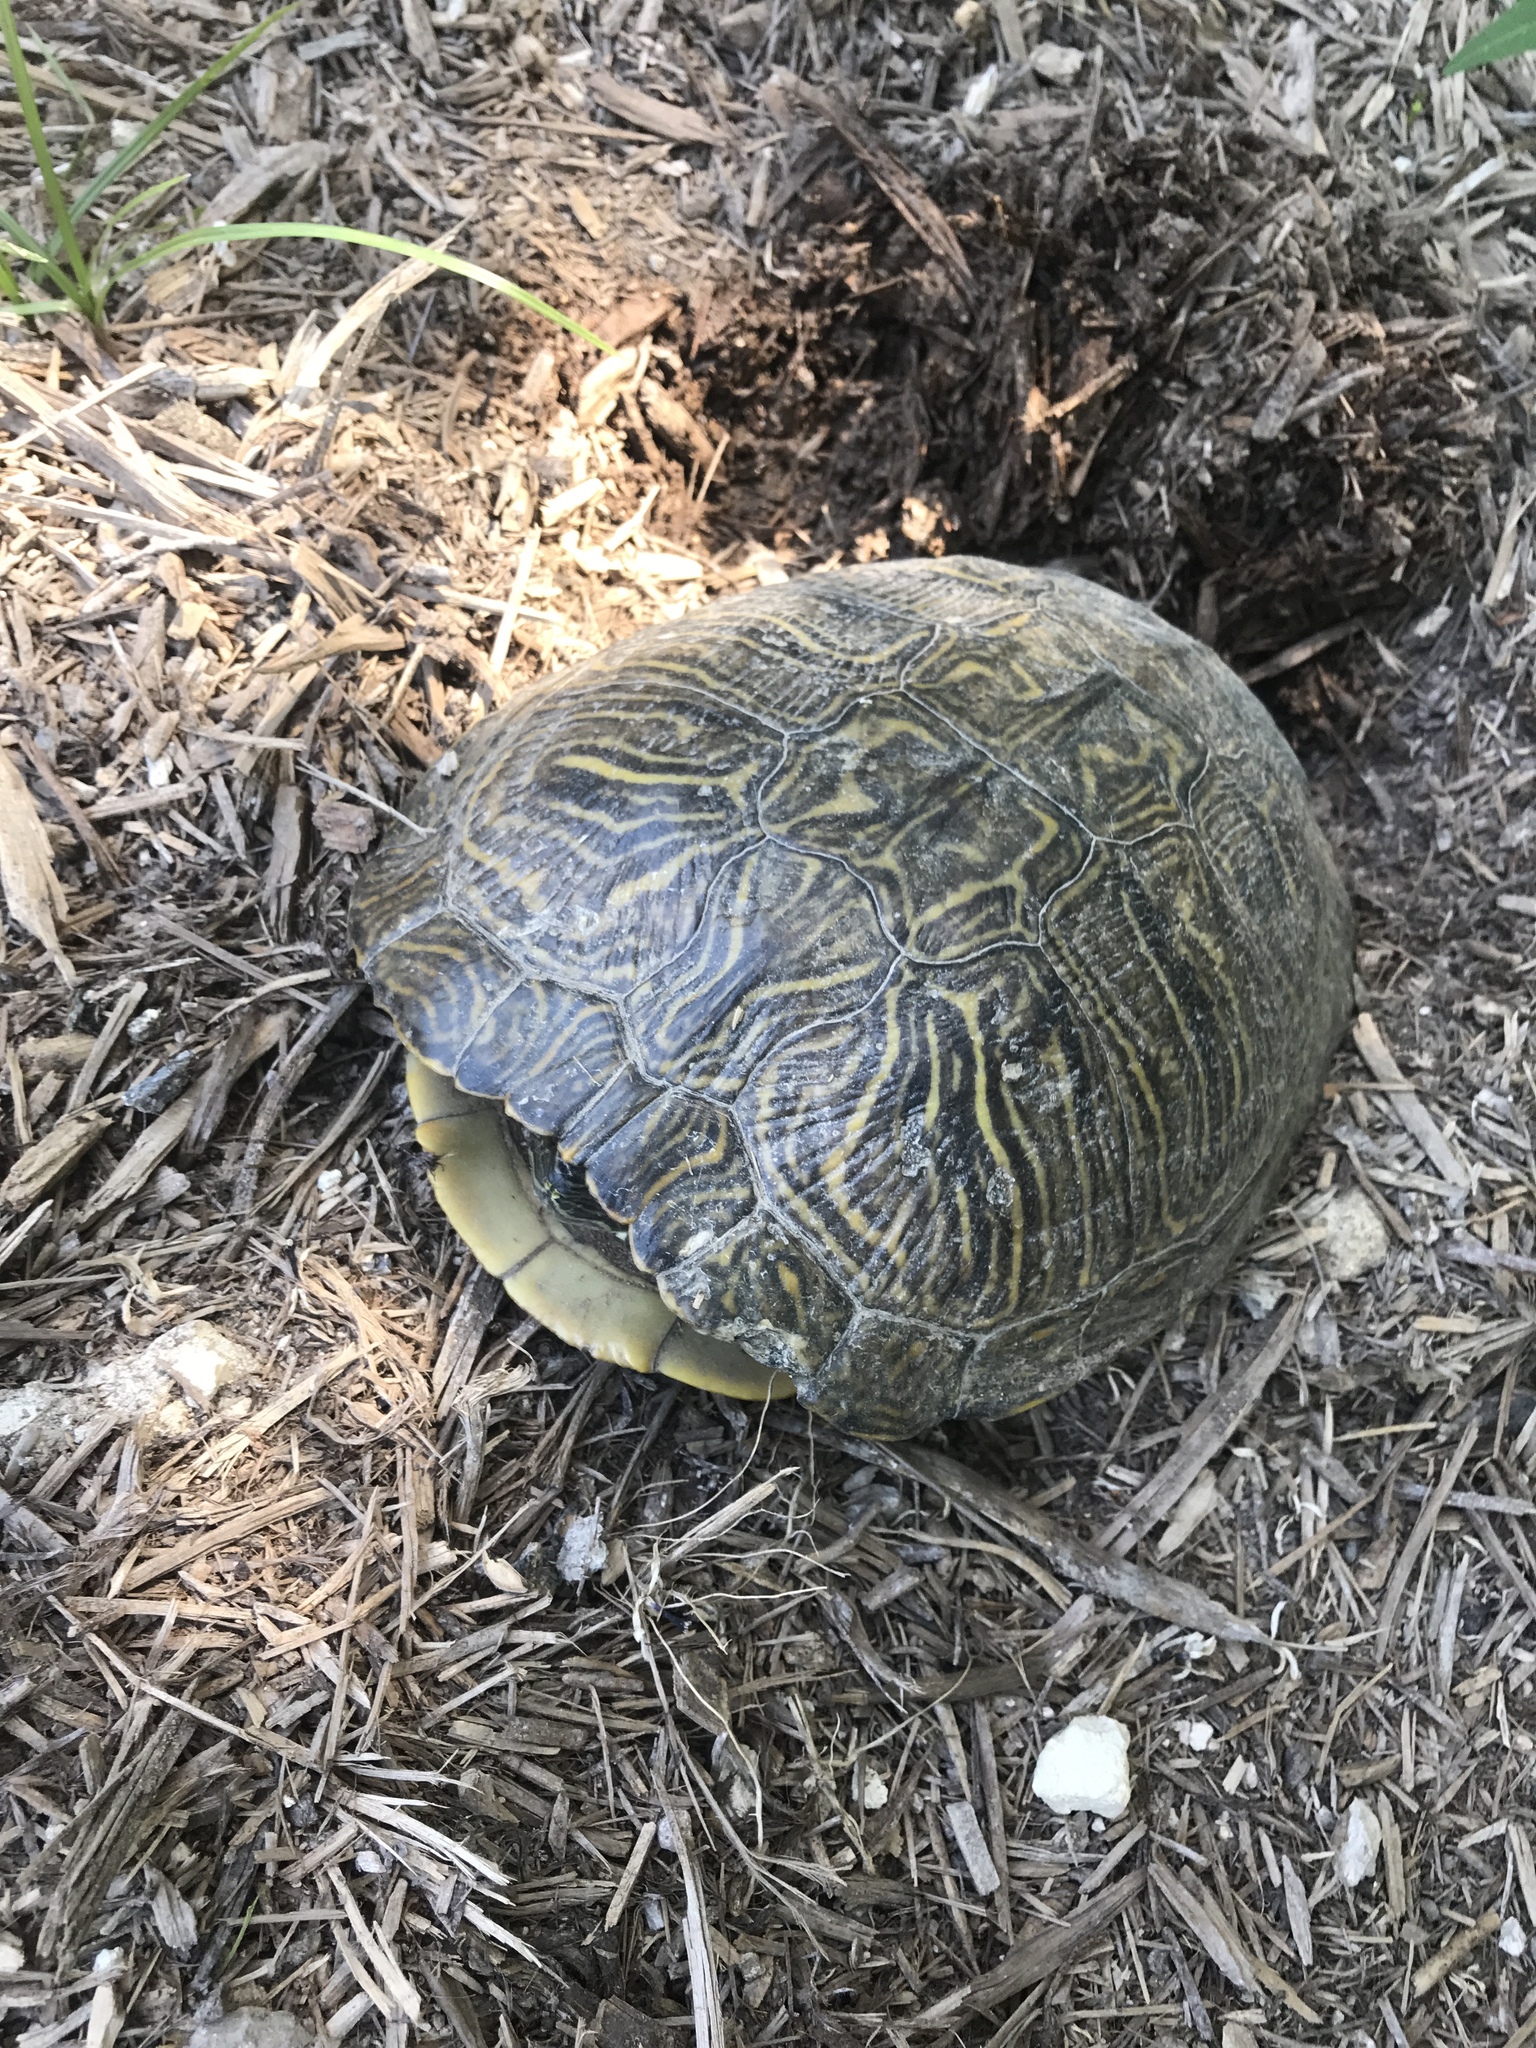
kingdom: Animalia
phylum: Chordata
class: Testudines
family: Emydidae
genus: Trachemys
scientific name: Trachemys scripta
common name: Slider
